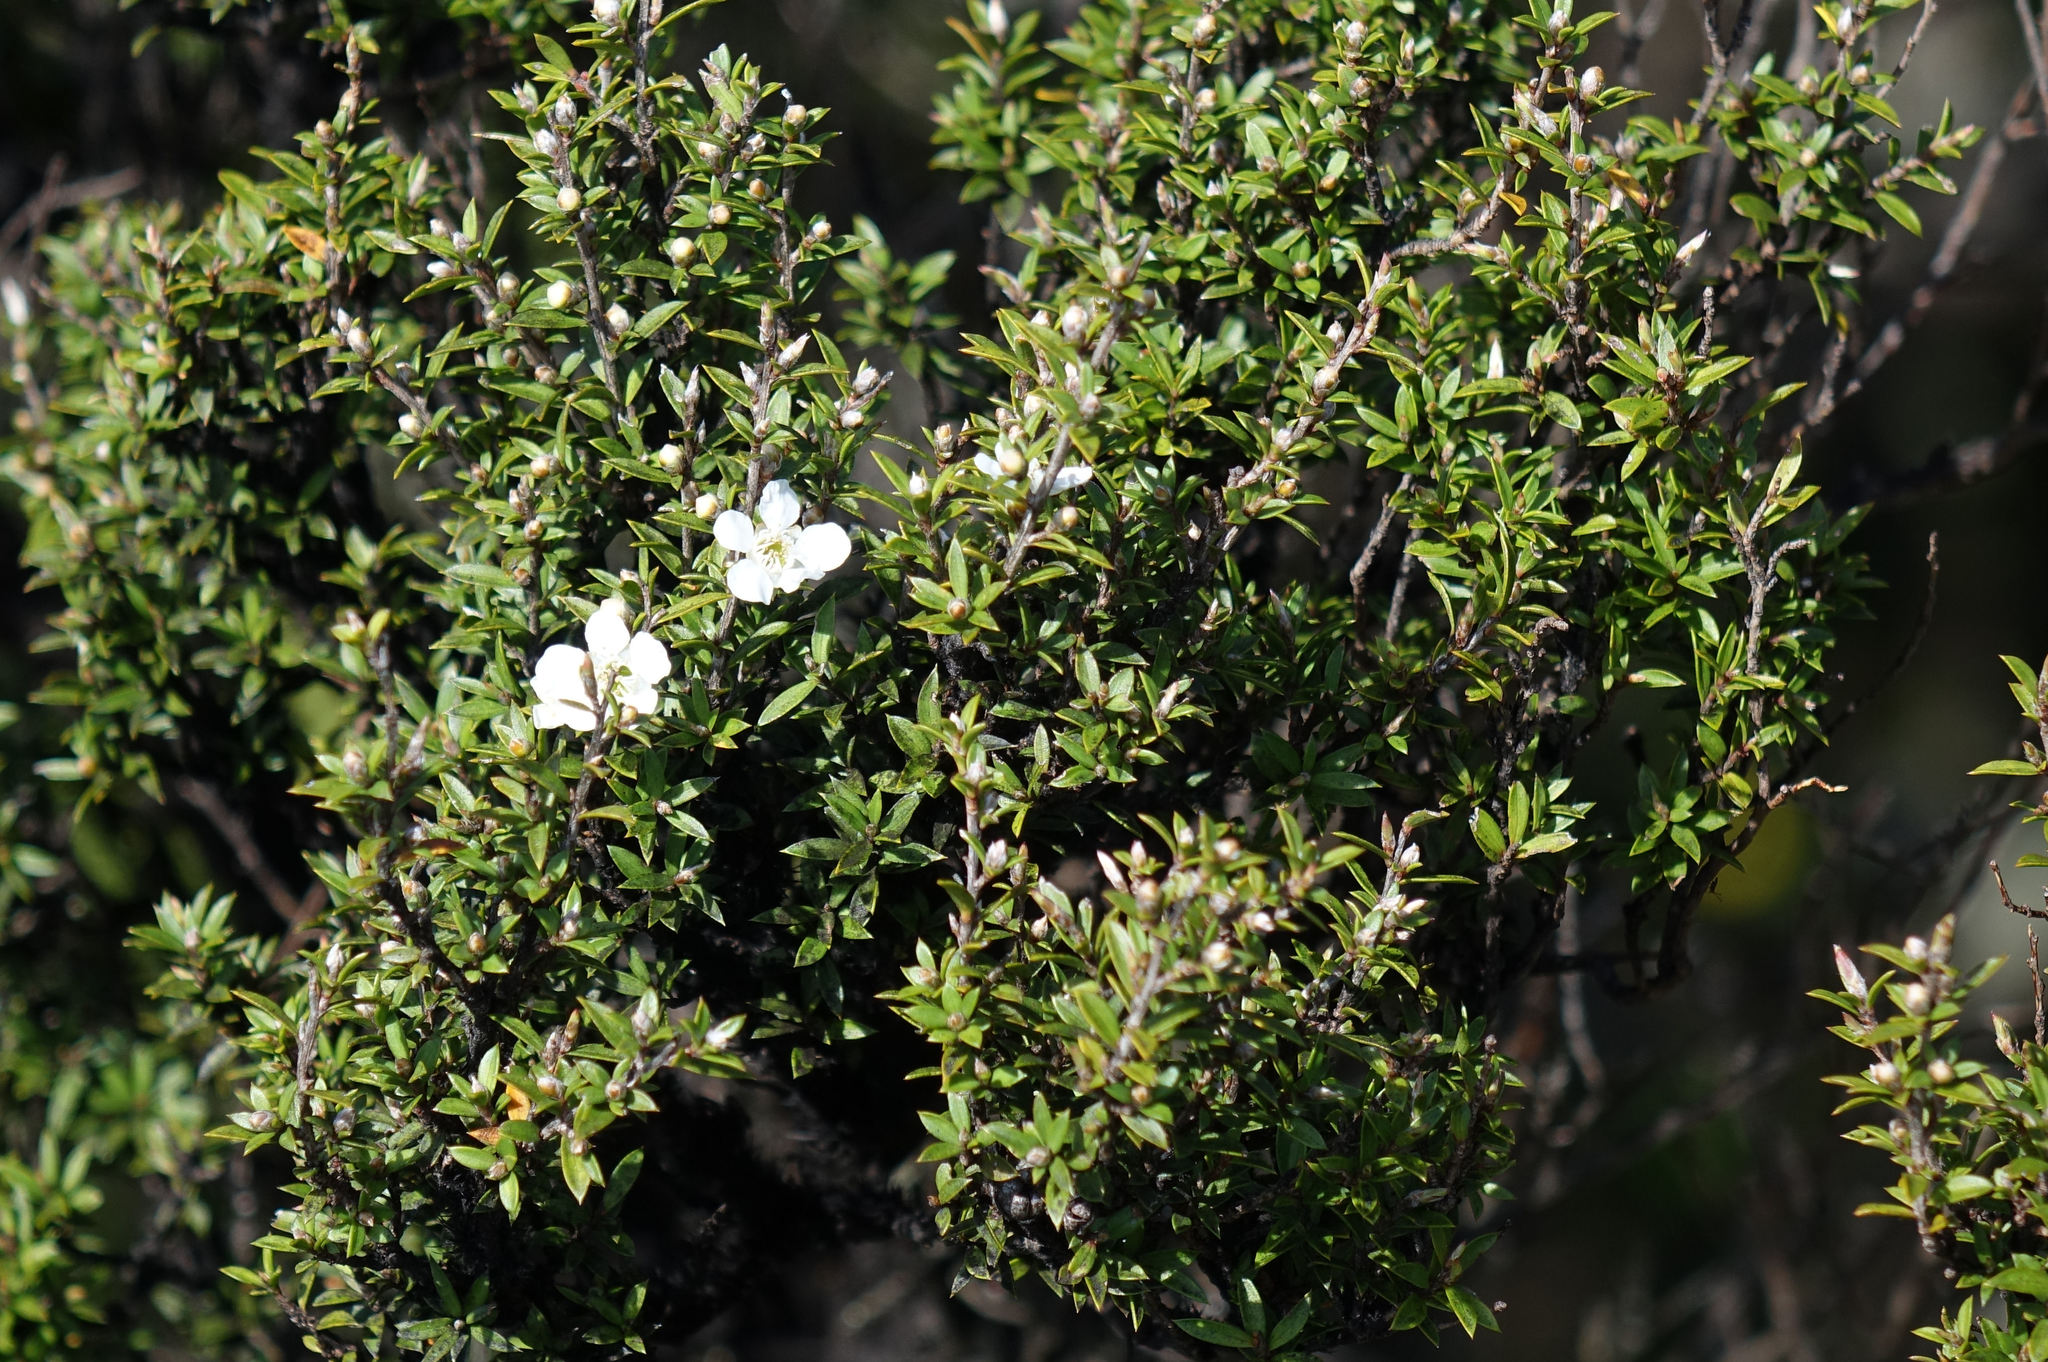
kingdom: Plantae
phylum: Tracheophyta
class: Magnoliopsida
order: Myrtales
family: Myrtaceae
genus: Leptospermum
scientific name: Leptospermum scoparium
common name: Broom tea-tree
